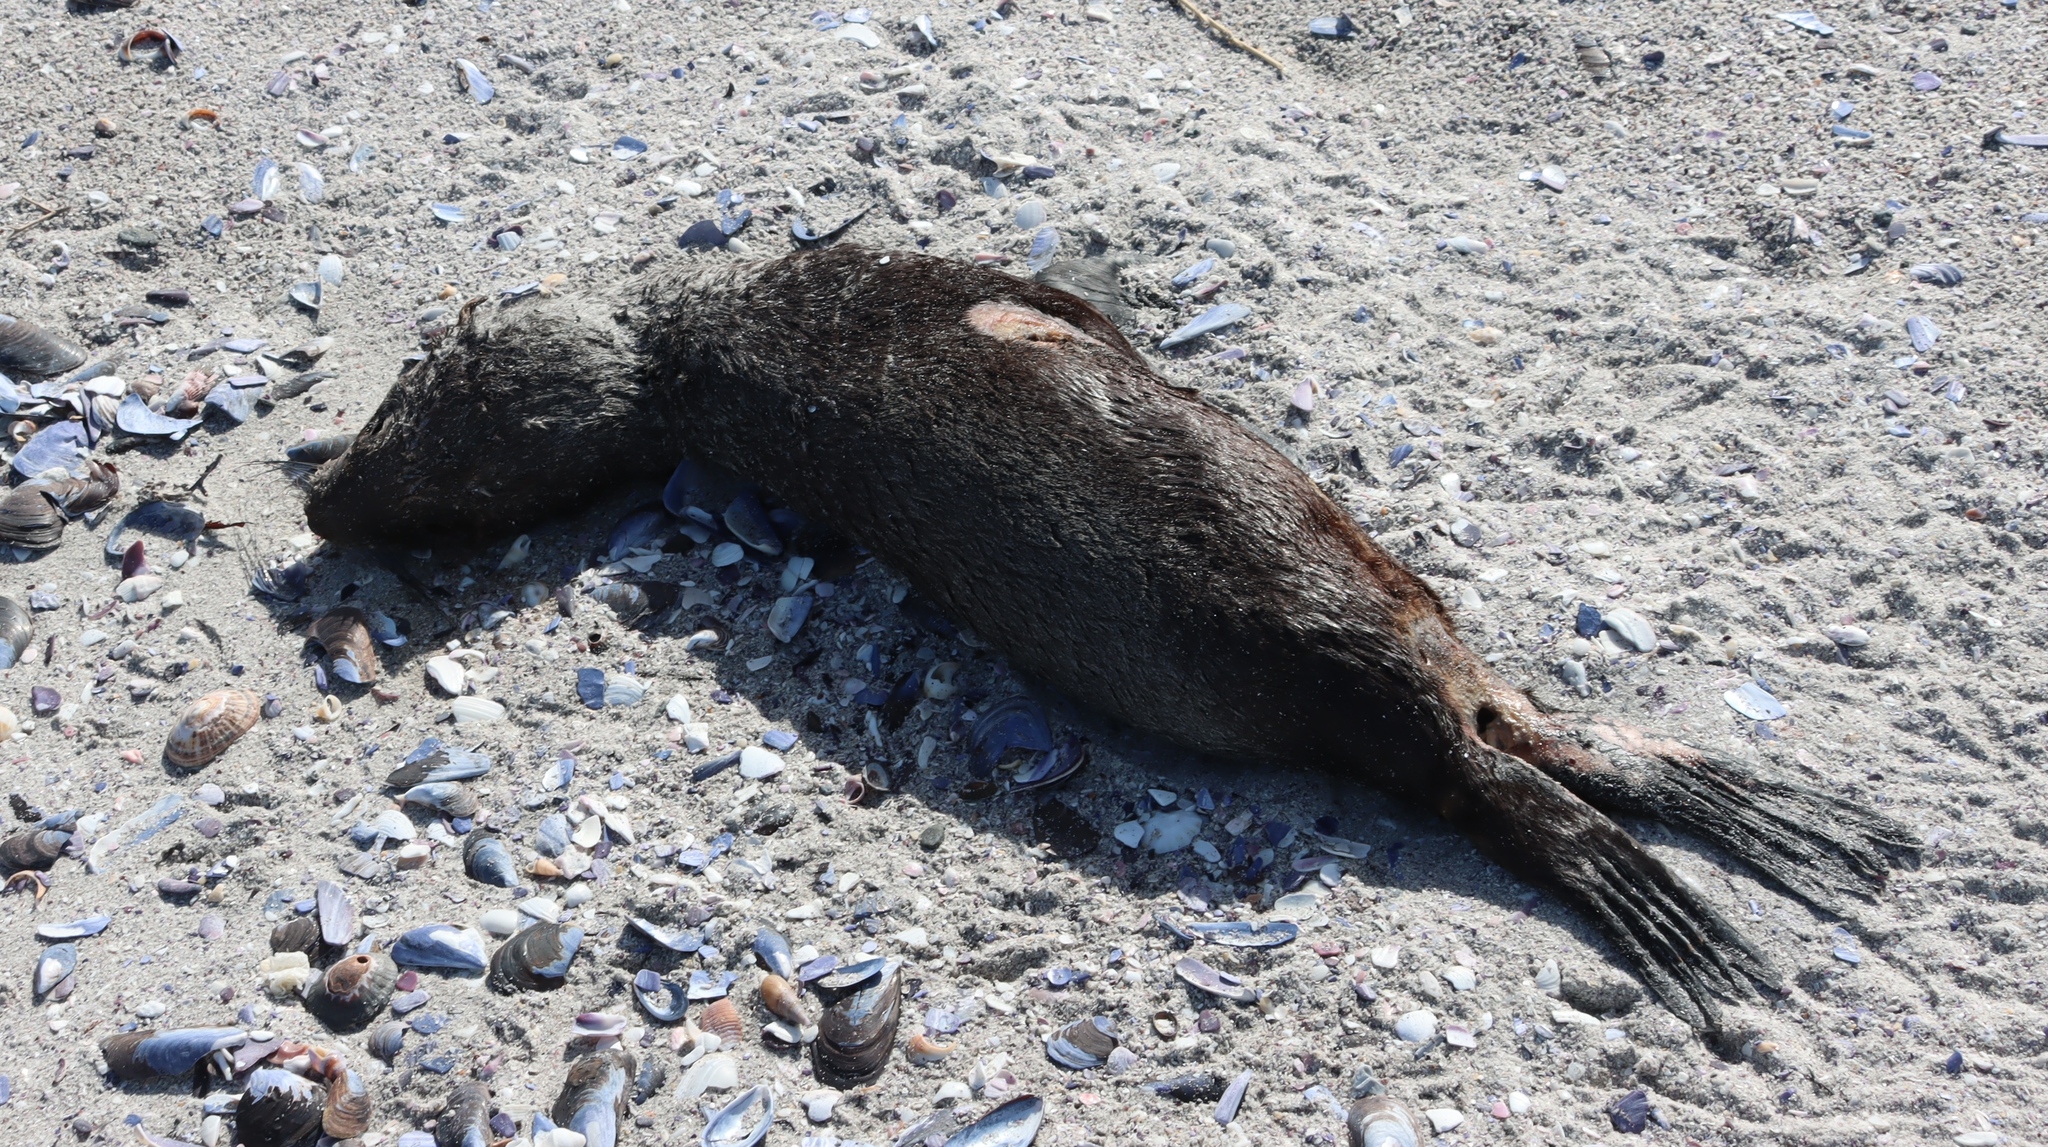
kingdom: Animalia
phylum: Chordata
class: Mammalia
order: Carnivora
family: Otariidae
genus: Arctocephalus
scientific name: Arctocephalus pusillus
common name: Brown fur seal
